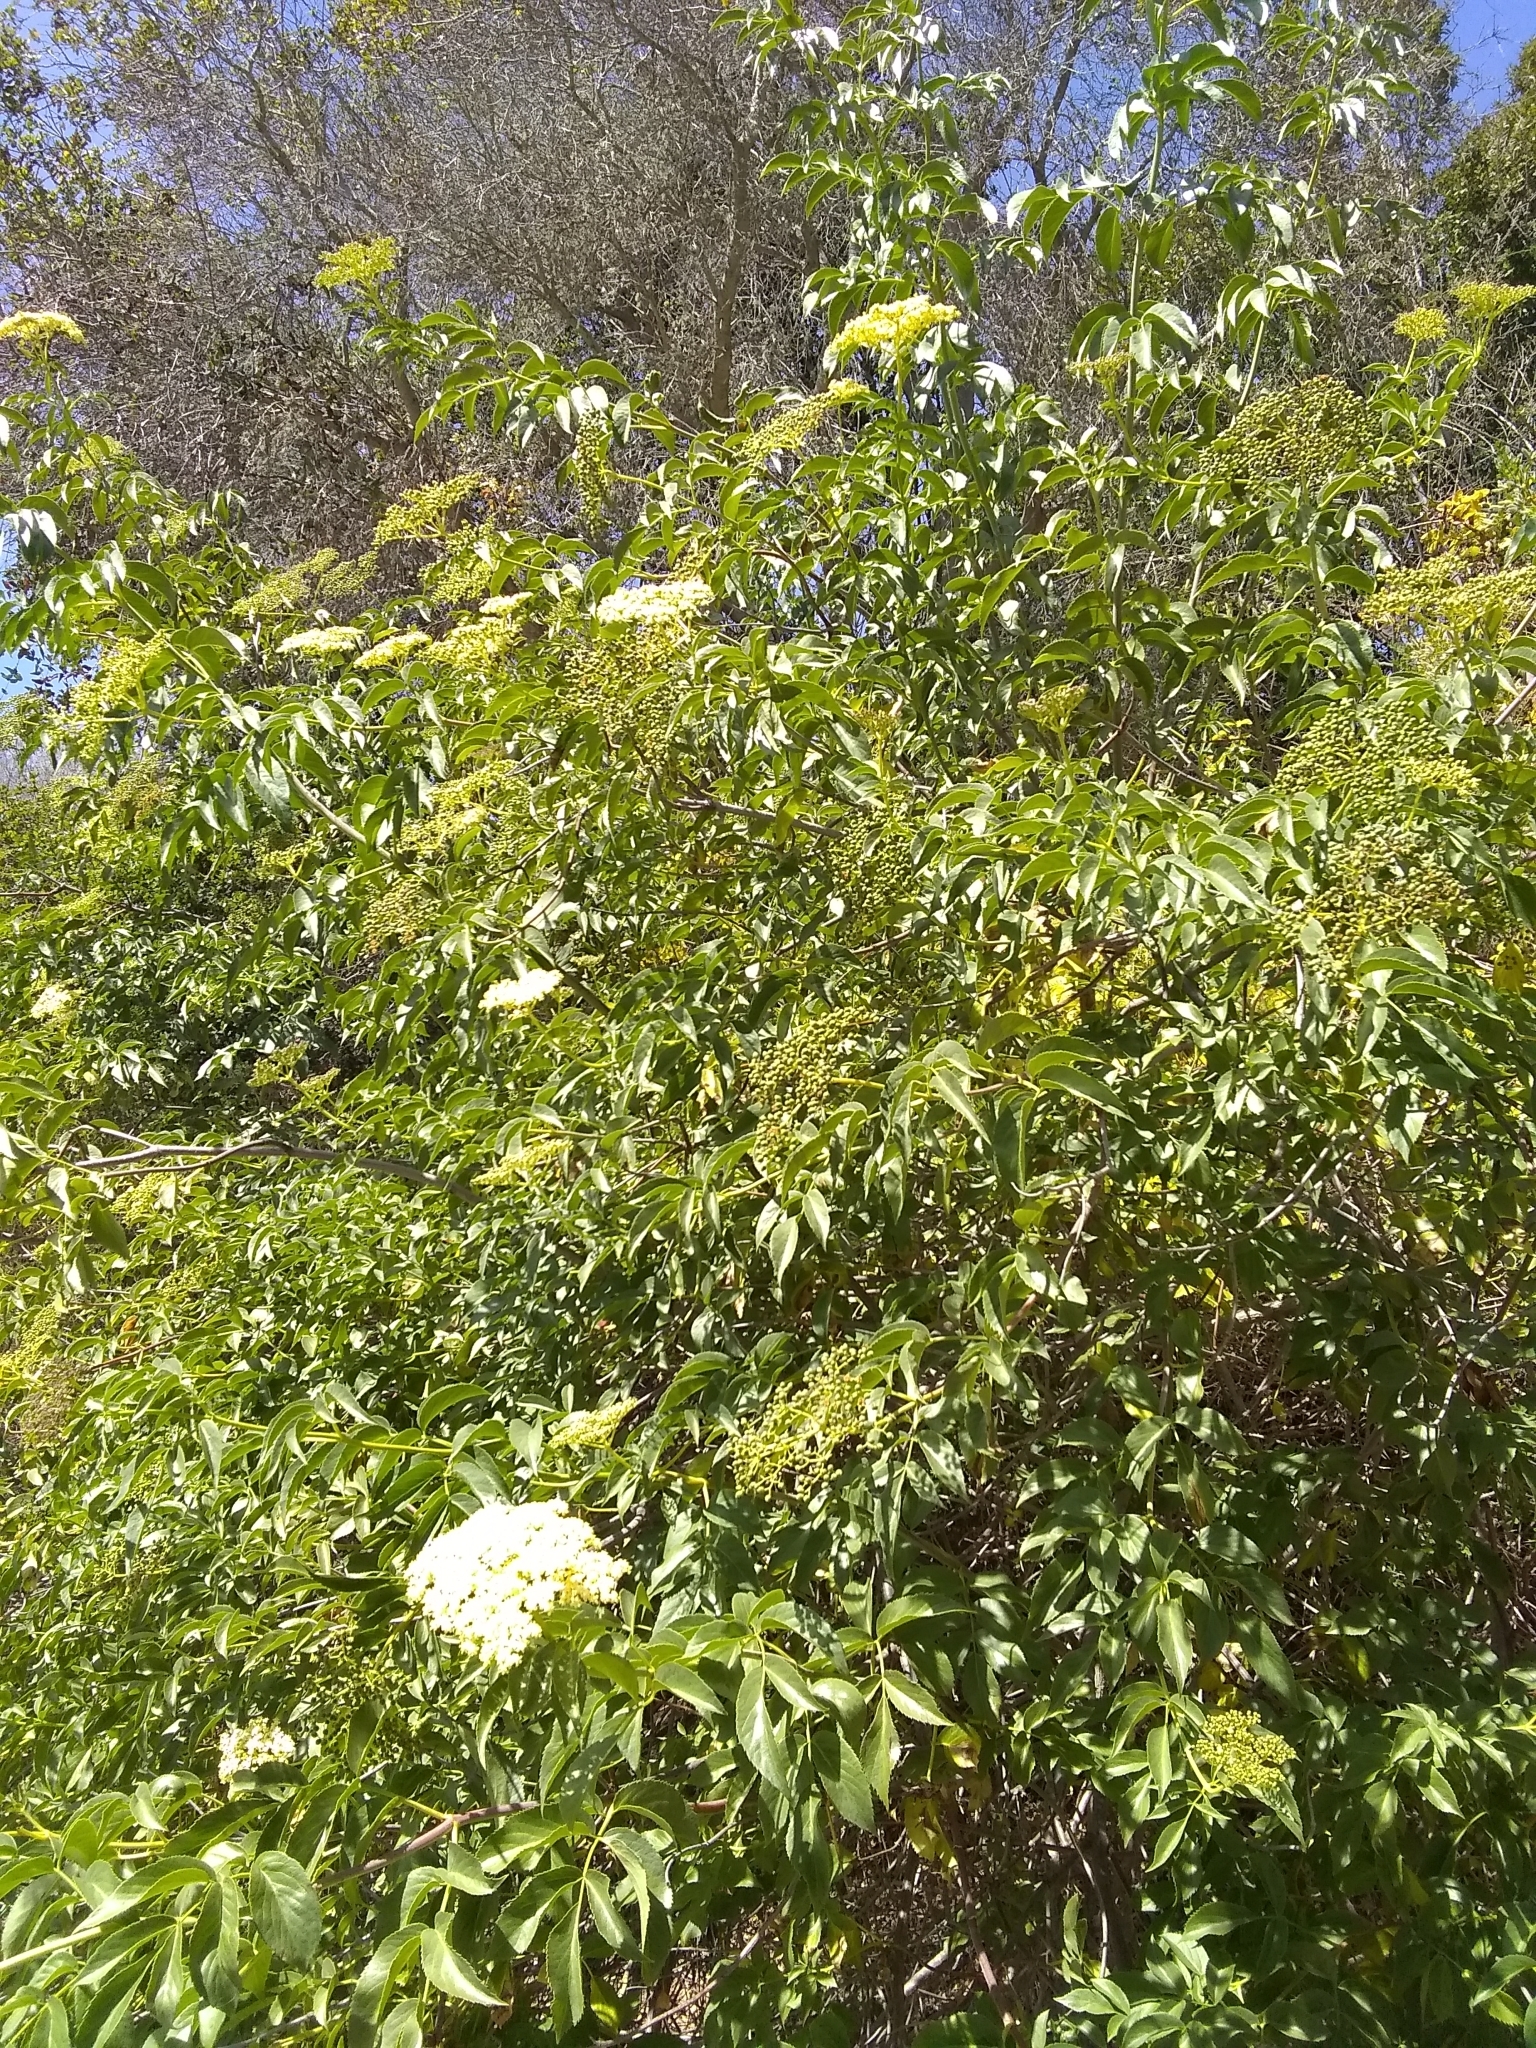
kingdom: Plantae
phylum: Tracheophyta
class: Magnoliopsida
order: Dipsacales
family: Viburnaceae
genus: Sambucus
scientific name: Sambucus cerulea
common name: Blue elder
